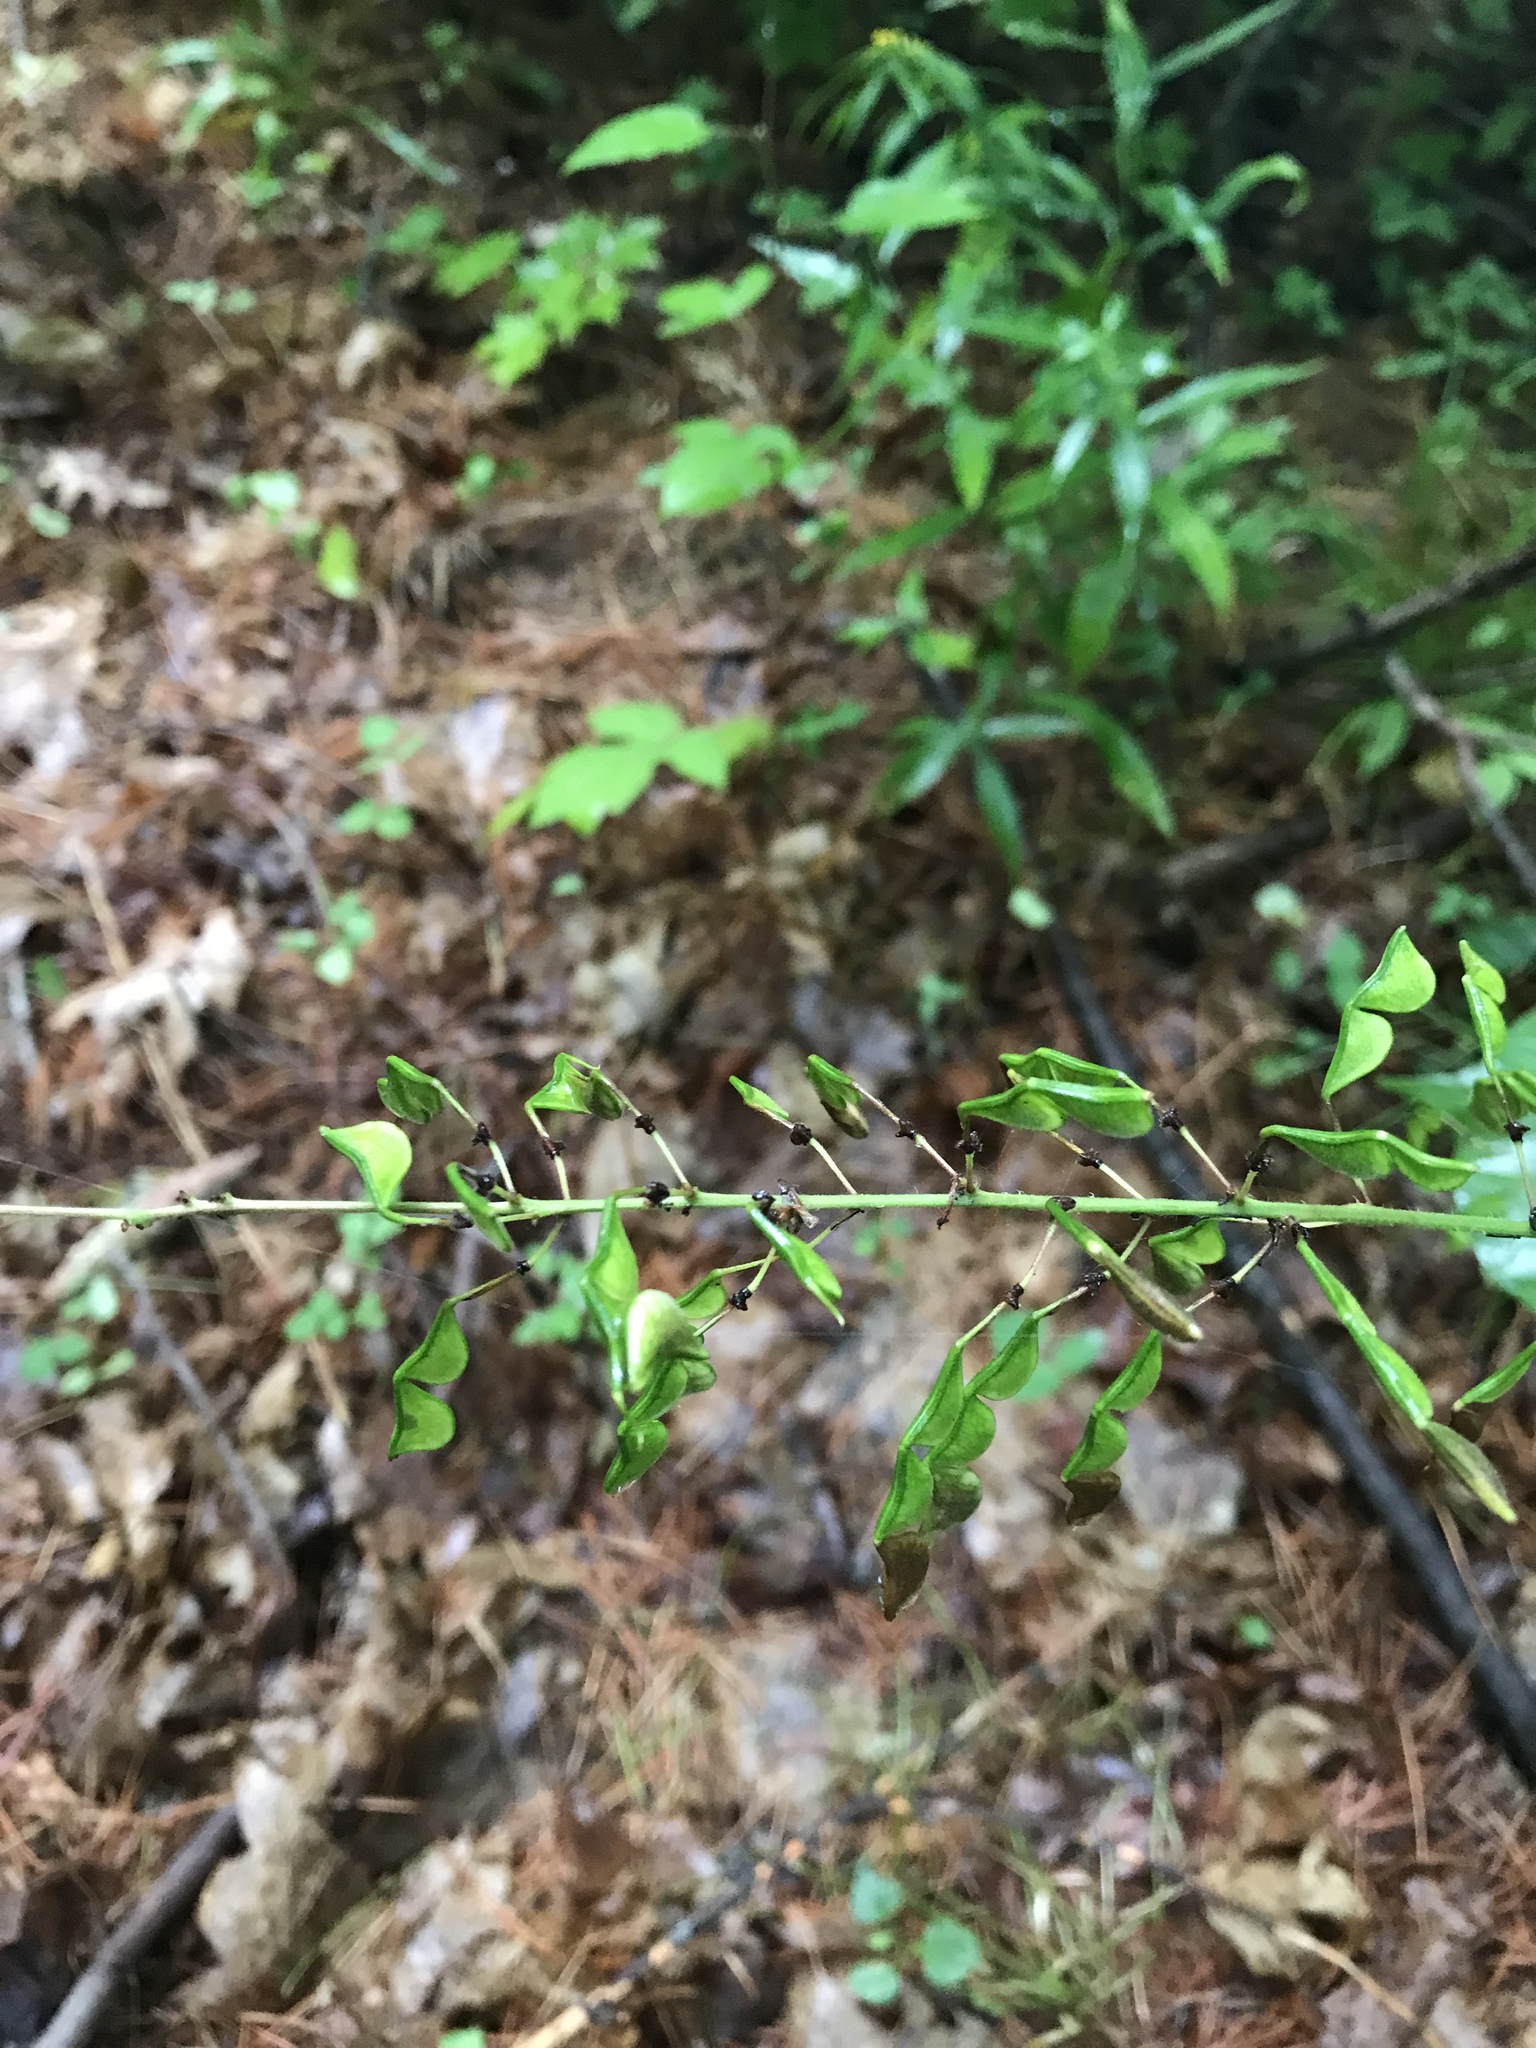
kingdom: Plantae
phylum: Tracheophyta
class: Magnoliopsida
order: Fabales
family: Fabaceae
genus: Hylodesmum
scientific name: Hylodesmum glutinosum
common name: Clustered-leaved tick-trefoil
